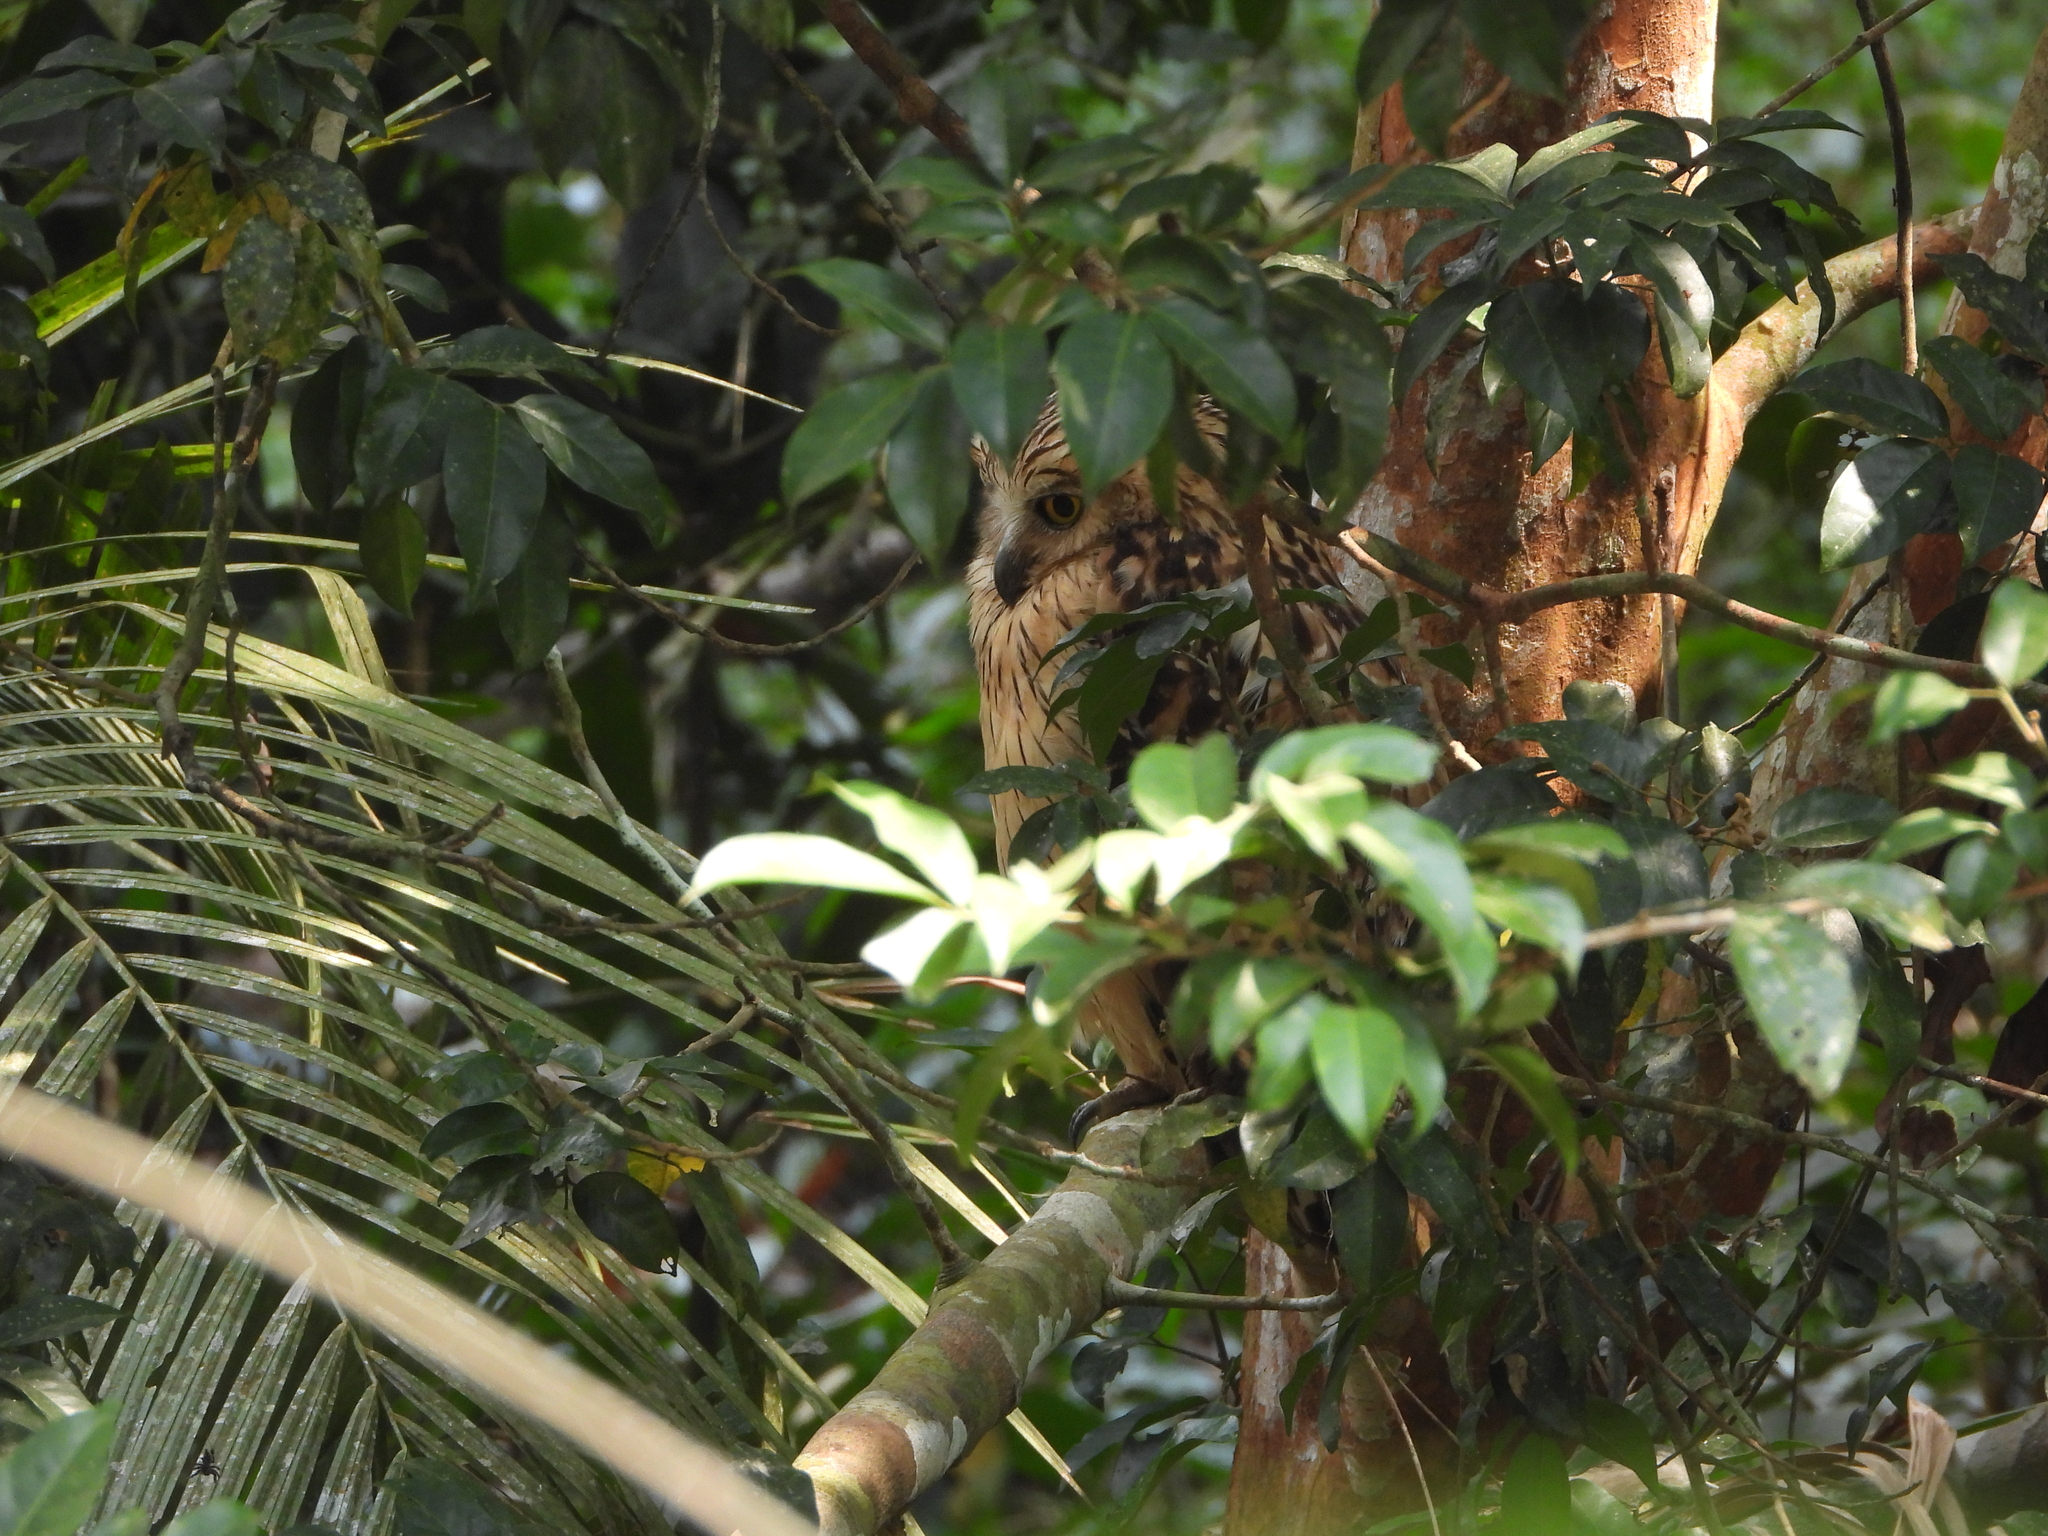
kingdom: Animalia
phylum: Chordata
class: Aves
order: Strigiformes
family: Strigidae
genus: Ketupa
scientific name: Ketupa ketupu
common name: Buffy fish-owl
